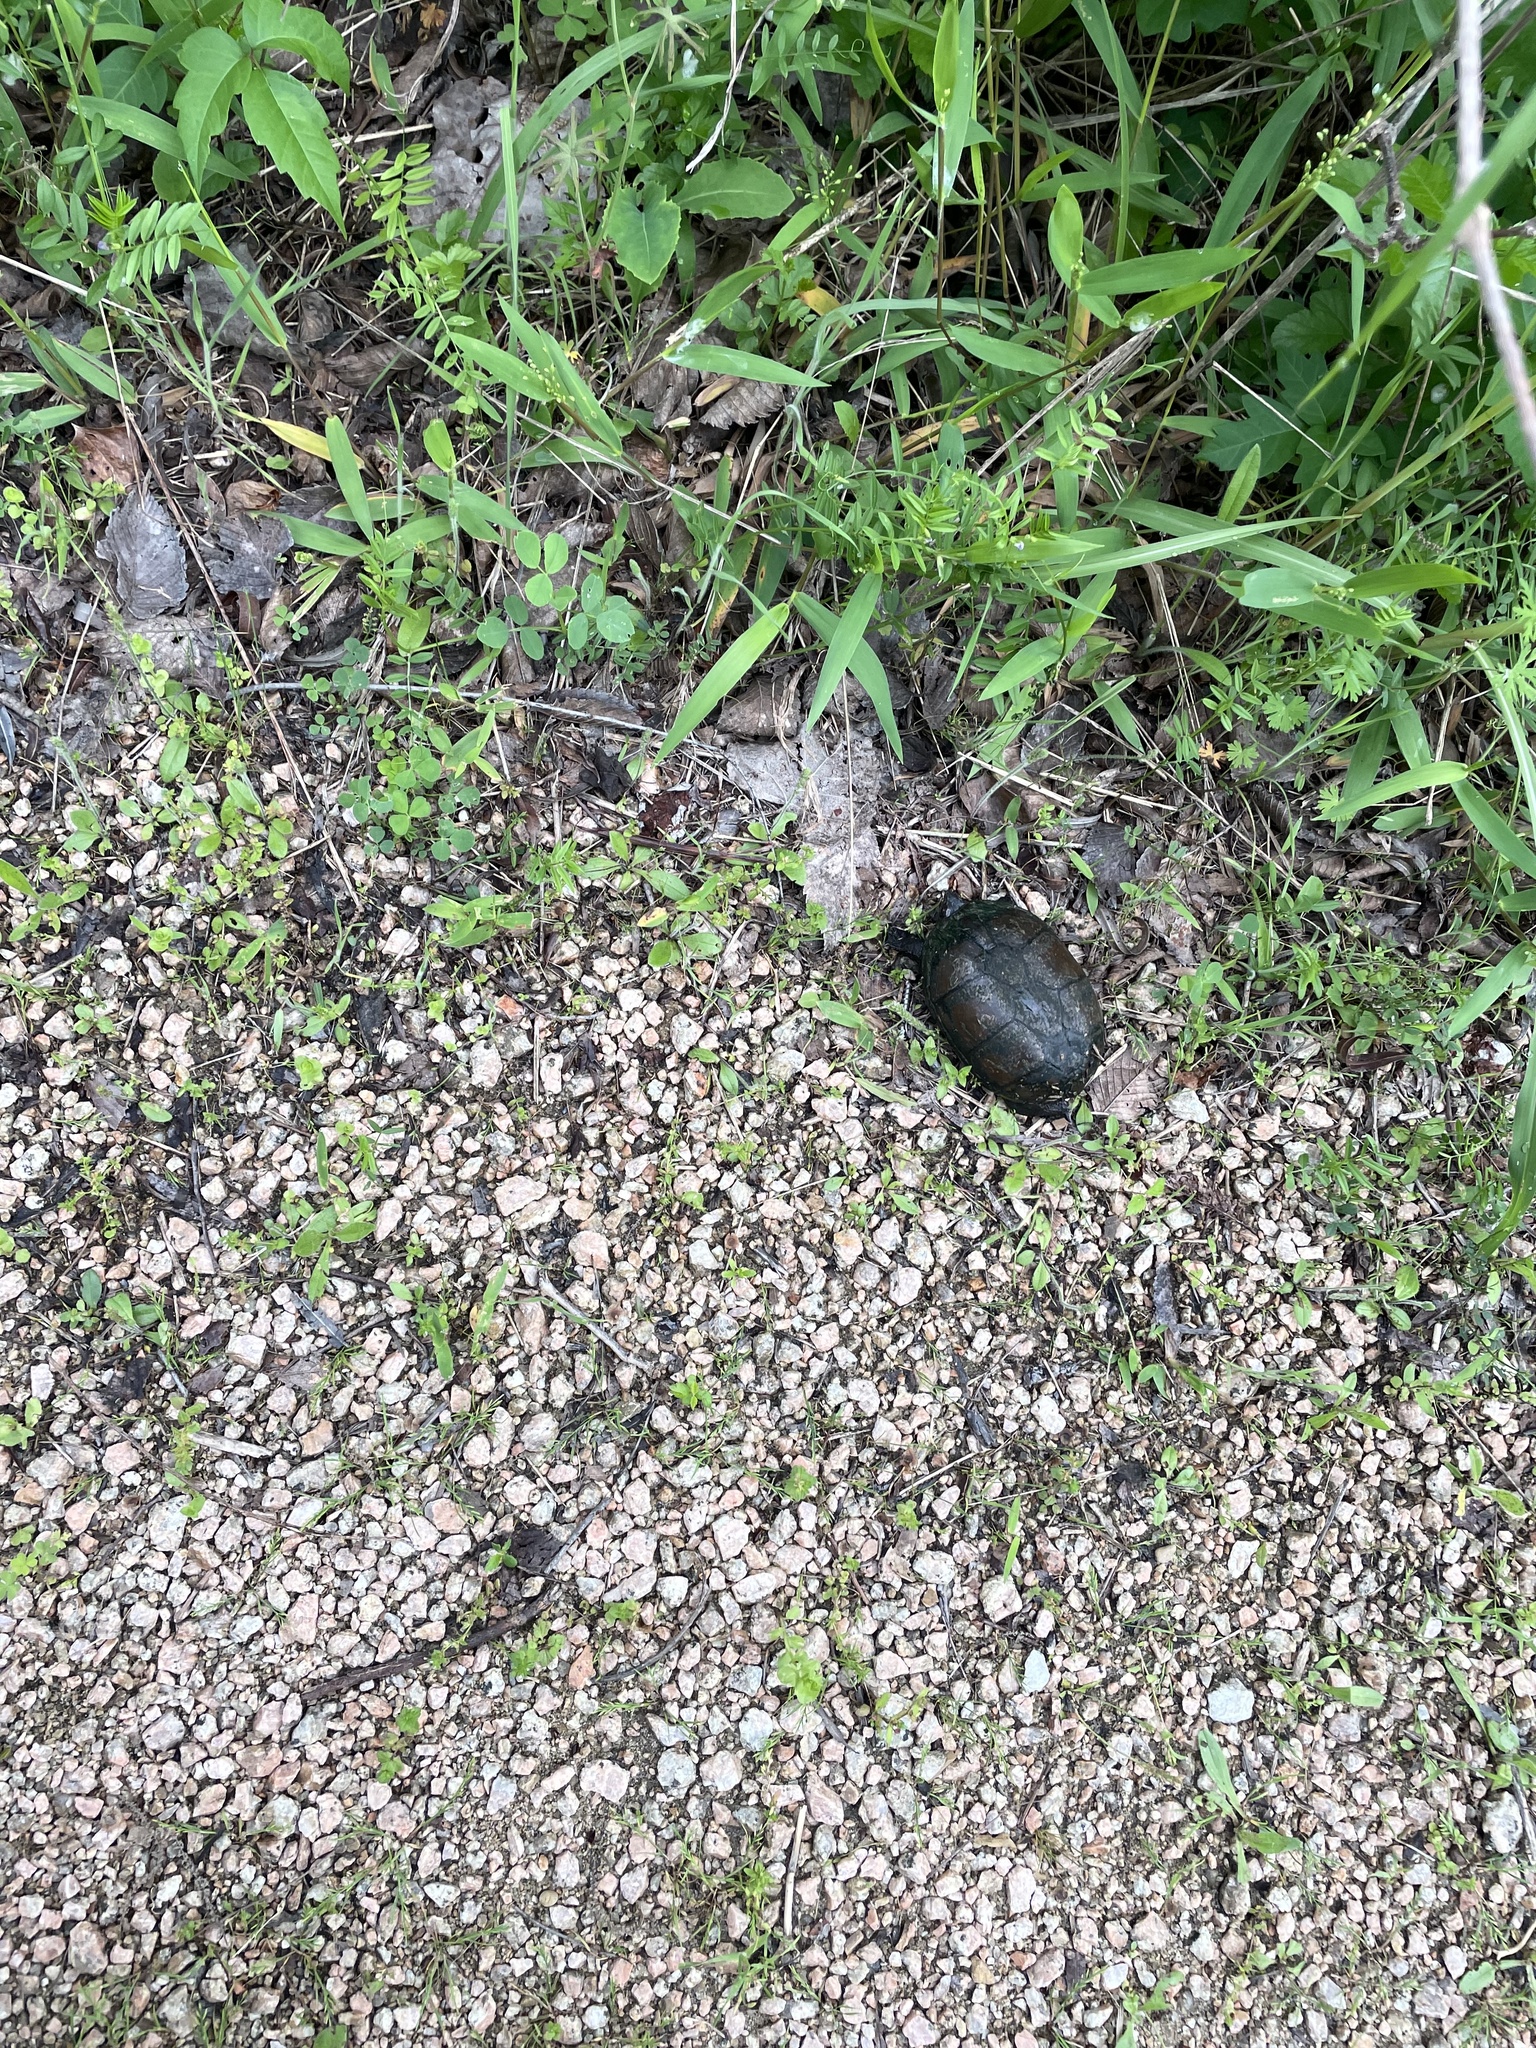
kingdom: Animalia
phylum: Chordata
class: Testudines
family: Kinosternidae
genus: Kinosternon
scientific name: Kinosternon subrubrum
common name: Eastern mud turtle
